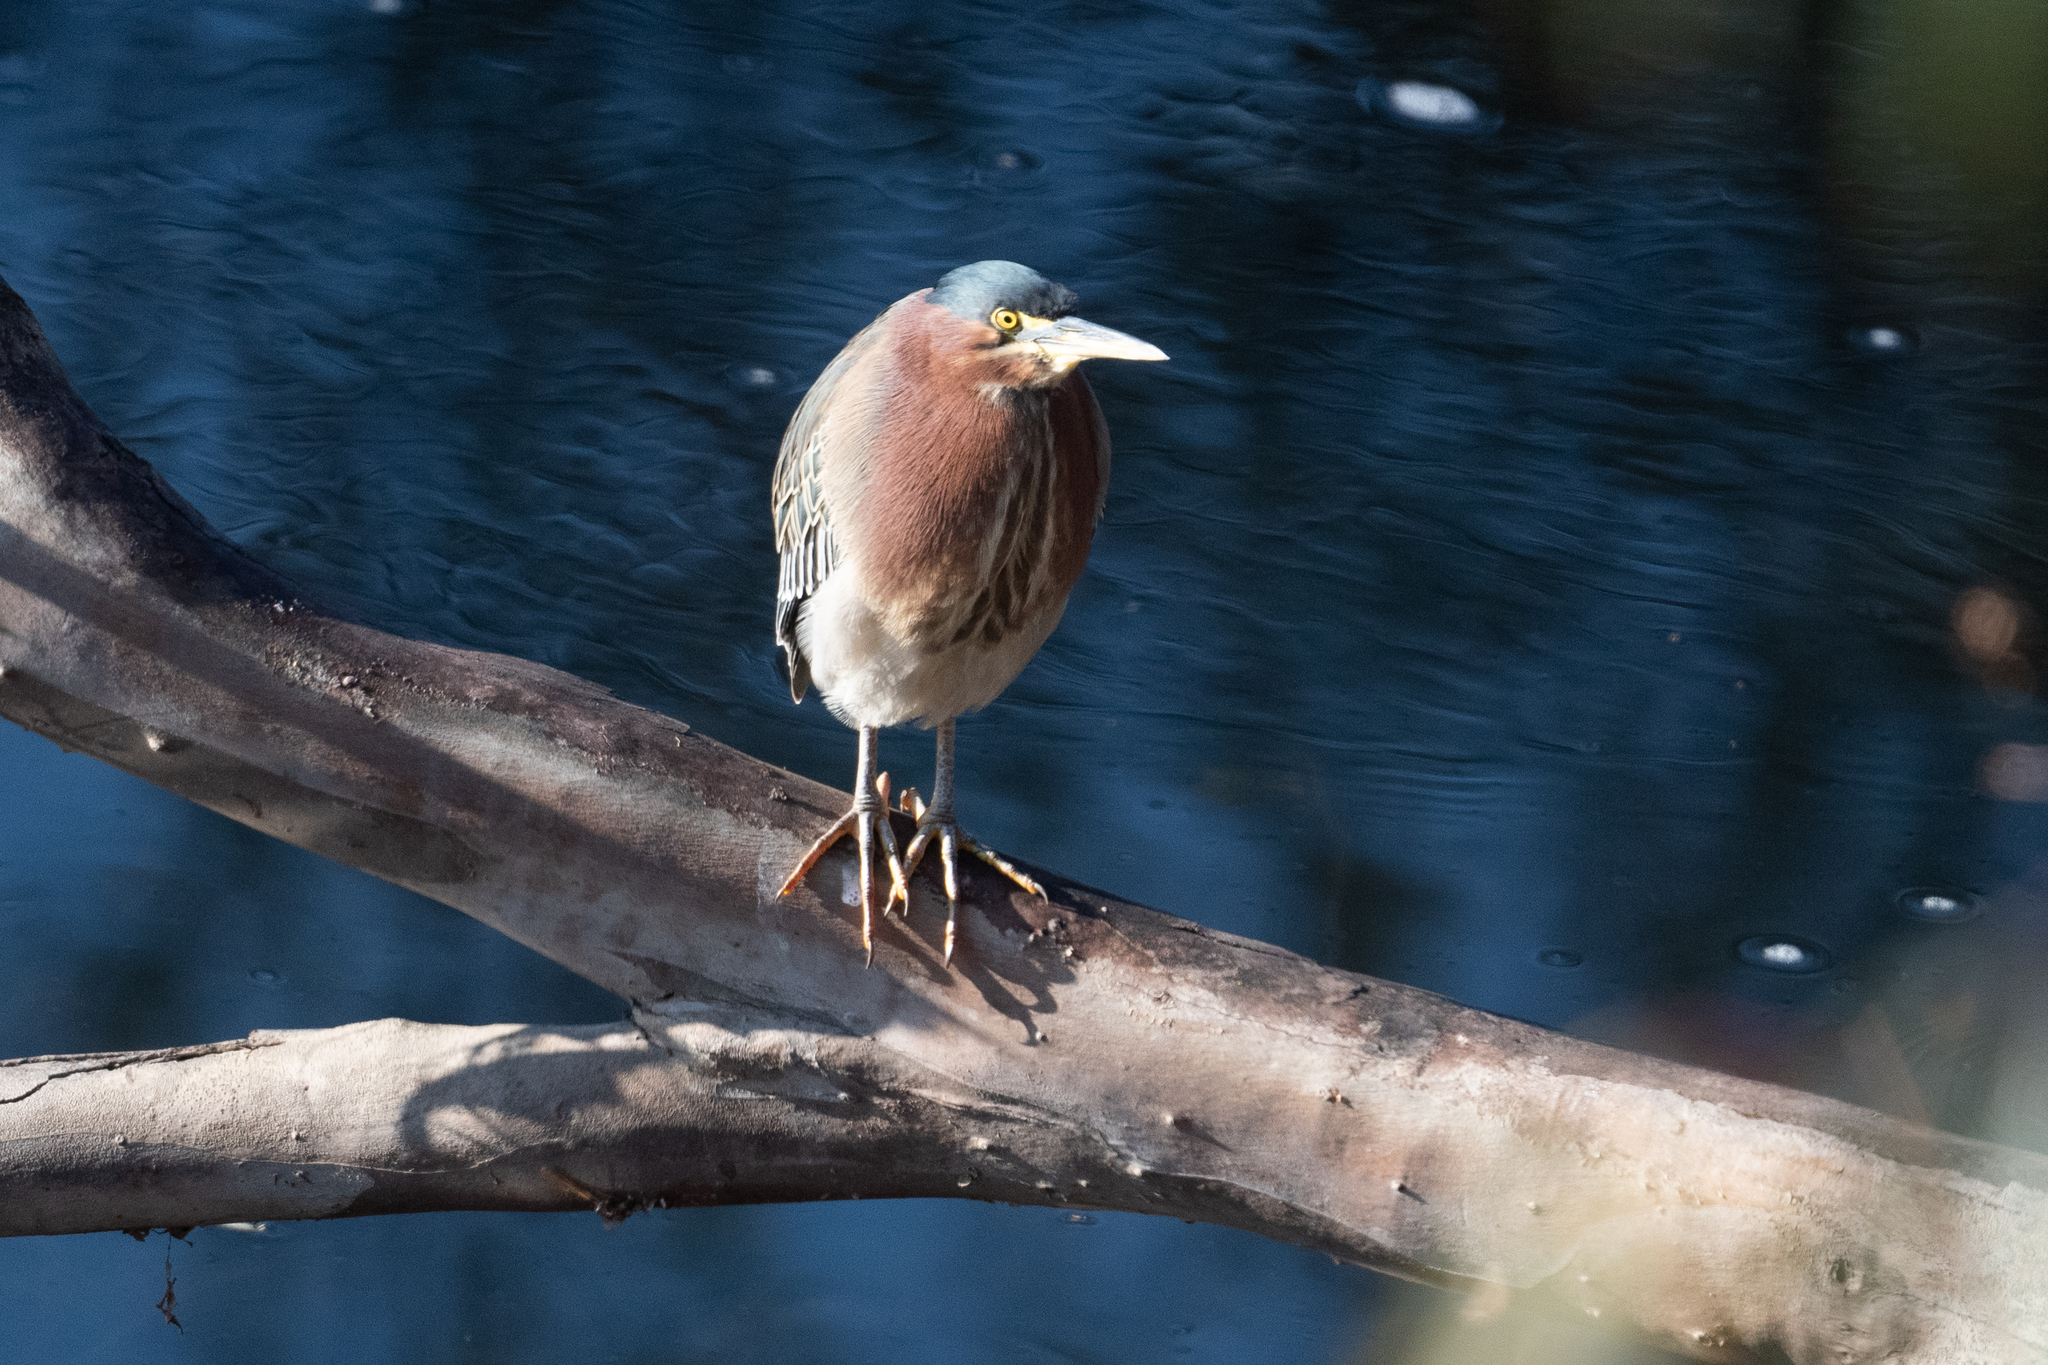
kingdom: Animalia
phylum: Chordata
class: Aves
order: Pelecaniformes
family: Ardeidae
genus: Butorides
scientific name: Butorides virescens
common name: Green heron
